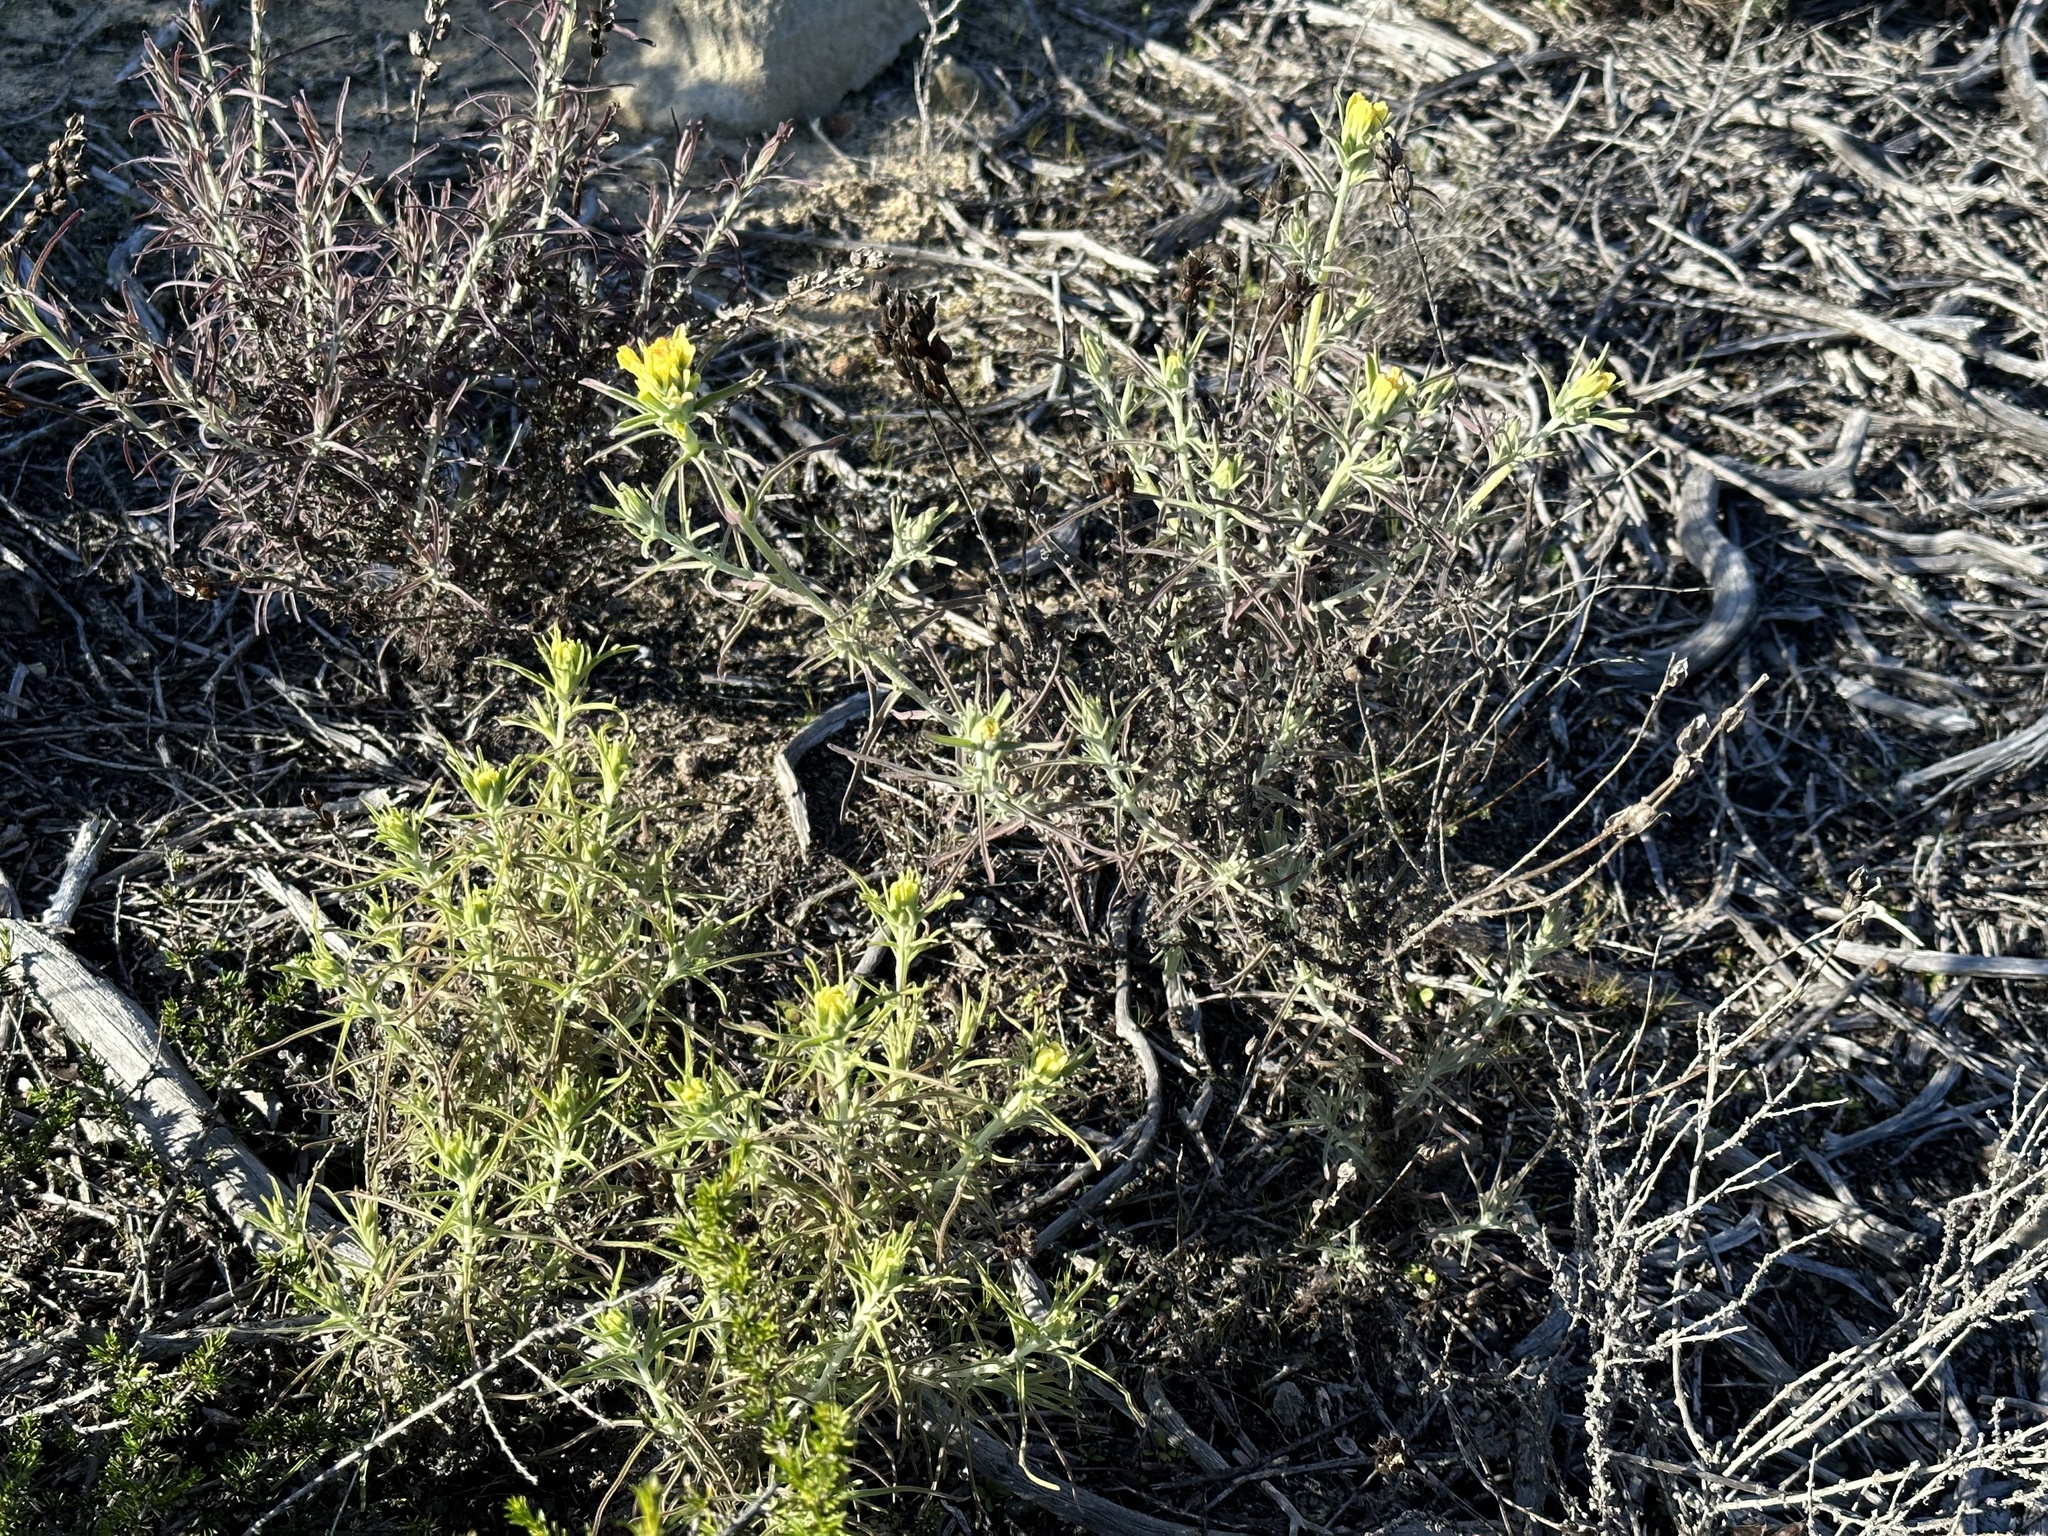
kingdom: Plantae
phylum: Tracheophyta
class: Magnoliopsida
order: Lamiales
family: Orobanchaceae
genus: Castilleja
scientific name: Castilleja foliolosa
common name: Woolly indian paintbrush
